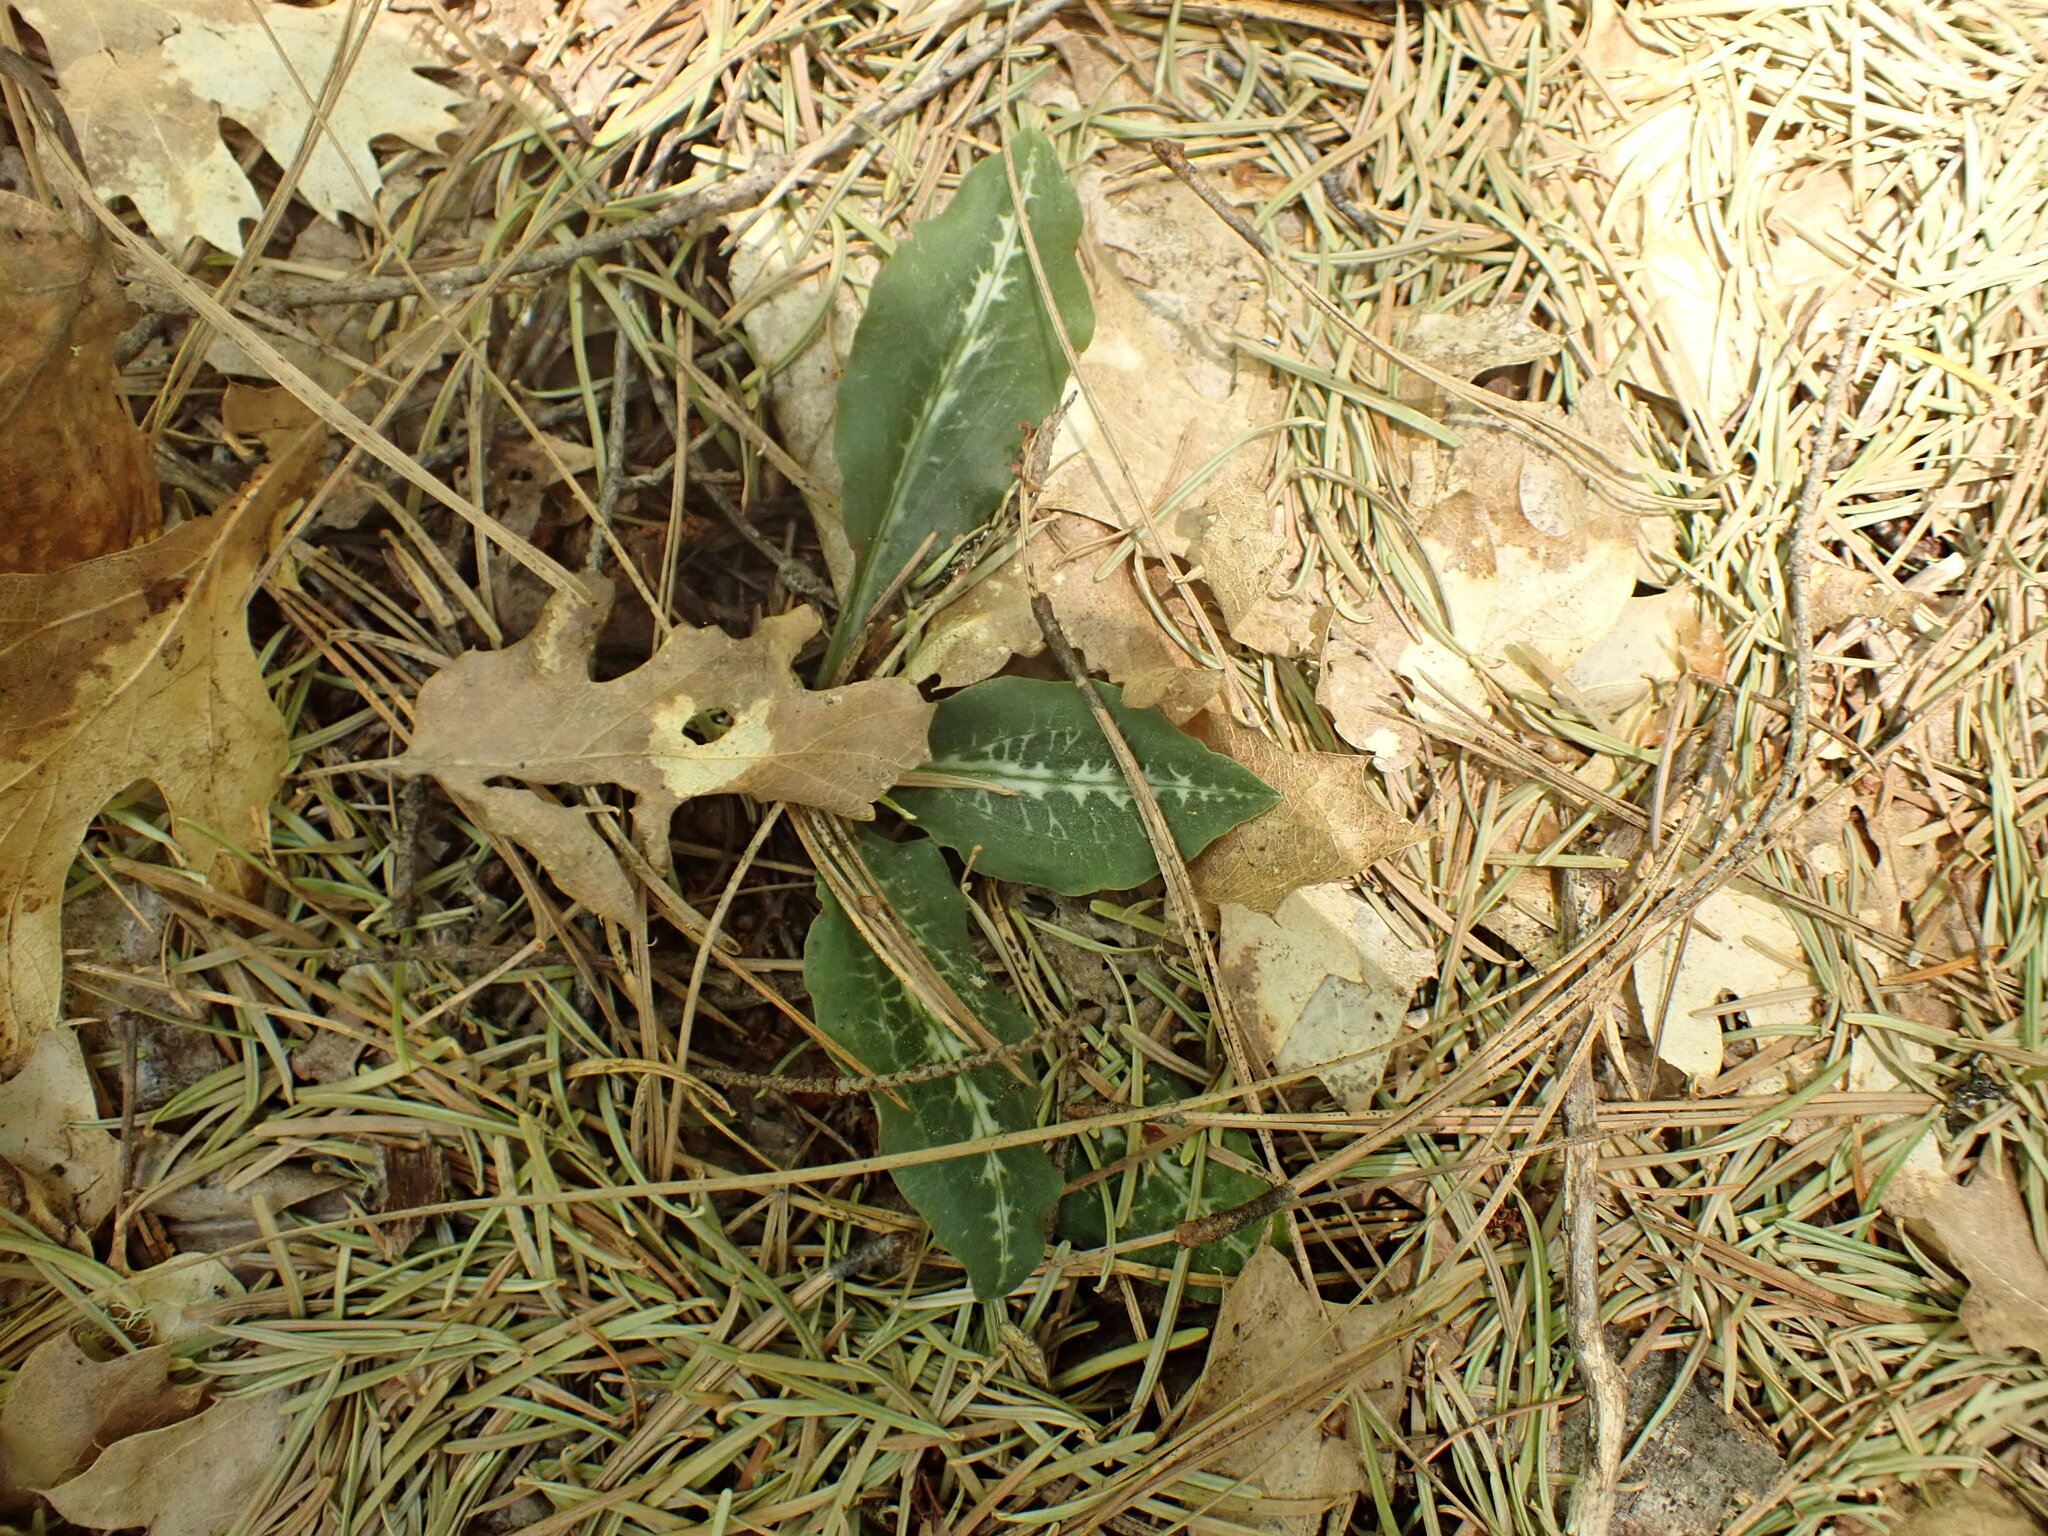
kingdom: Plantae
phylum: Tracheophyta
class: Liliopsida
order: Asparagales
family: Orchidaceae
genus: Goodyera
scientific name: Goodyera oblongifolia
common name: Giant rattlesnake-plantain
